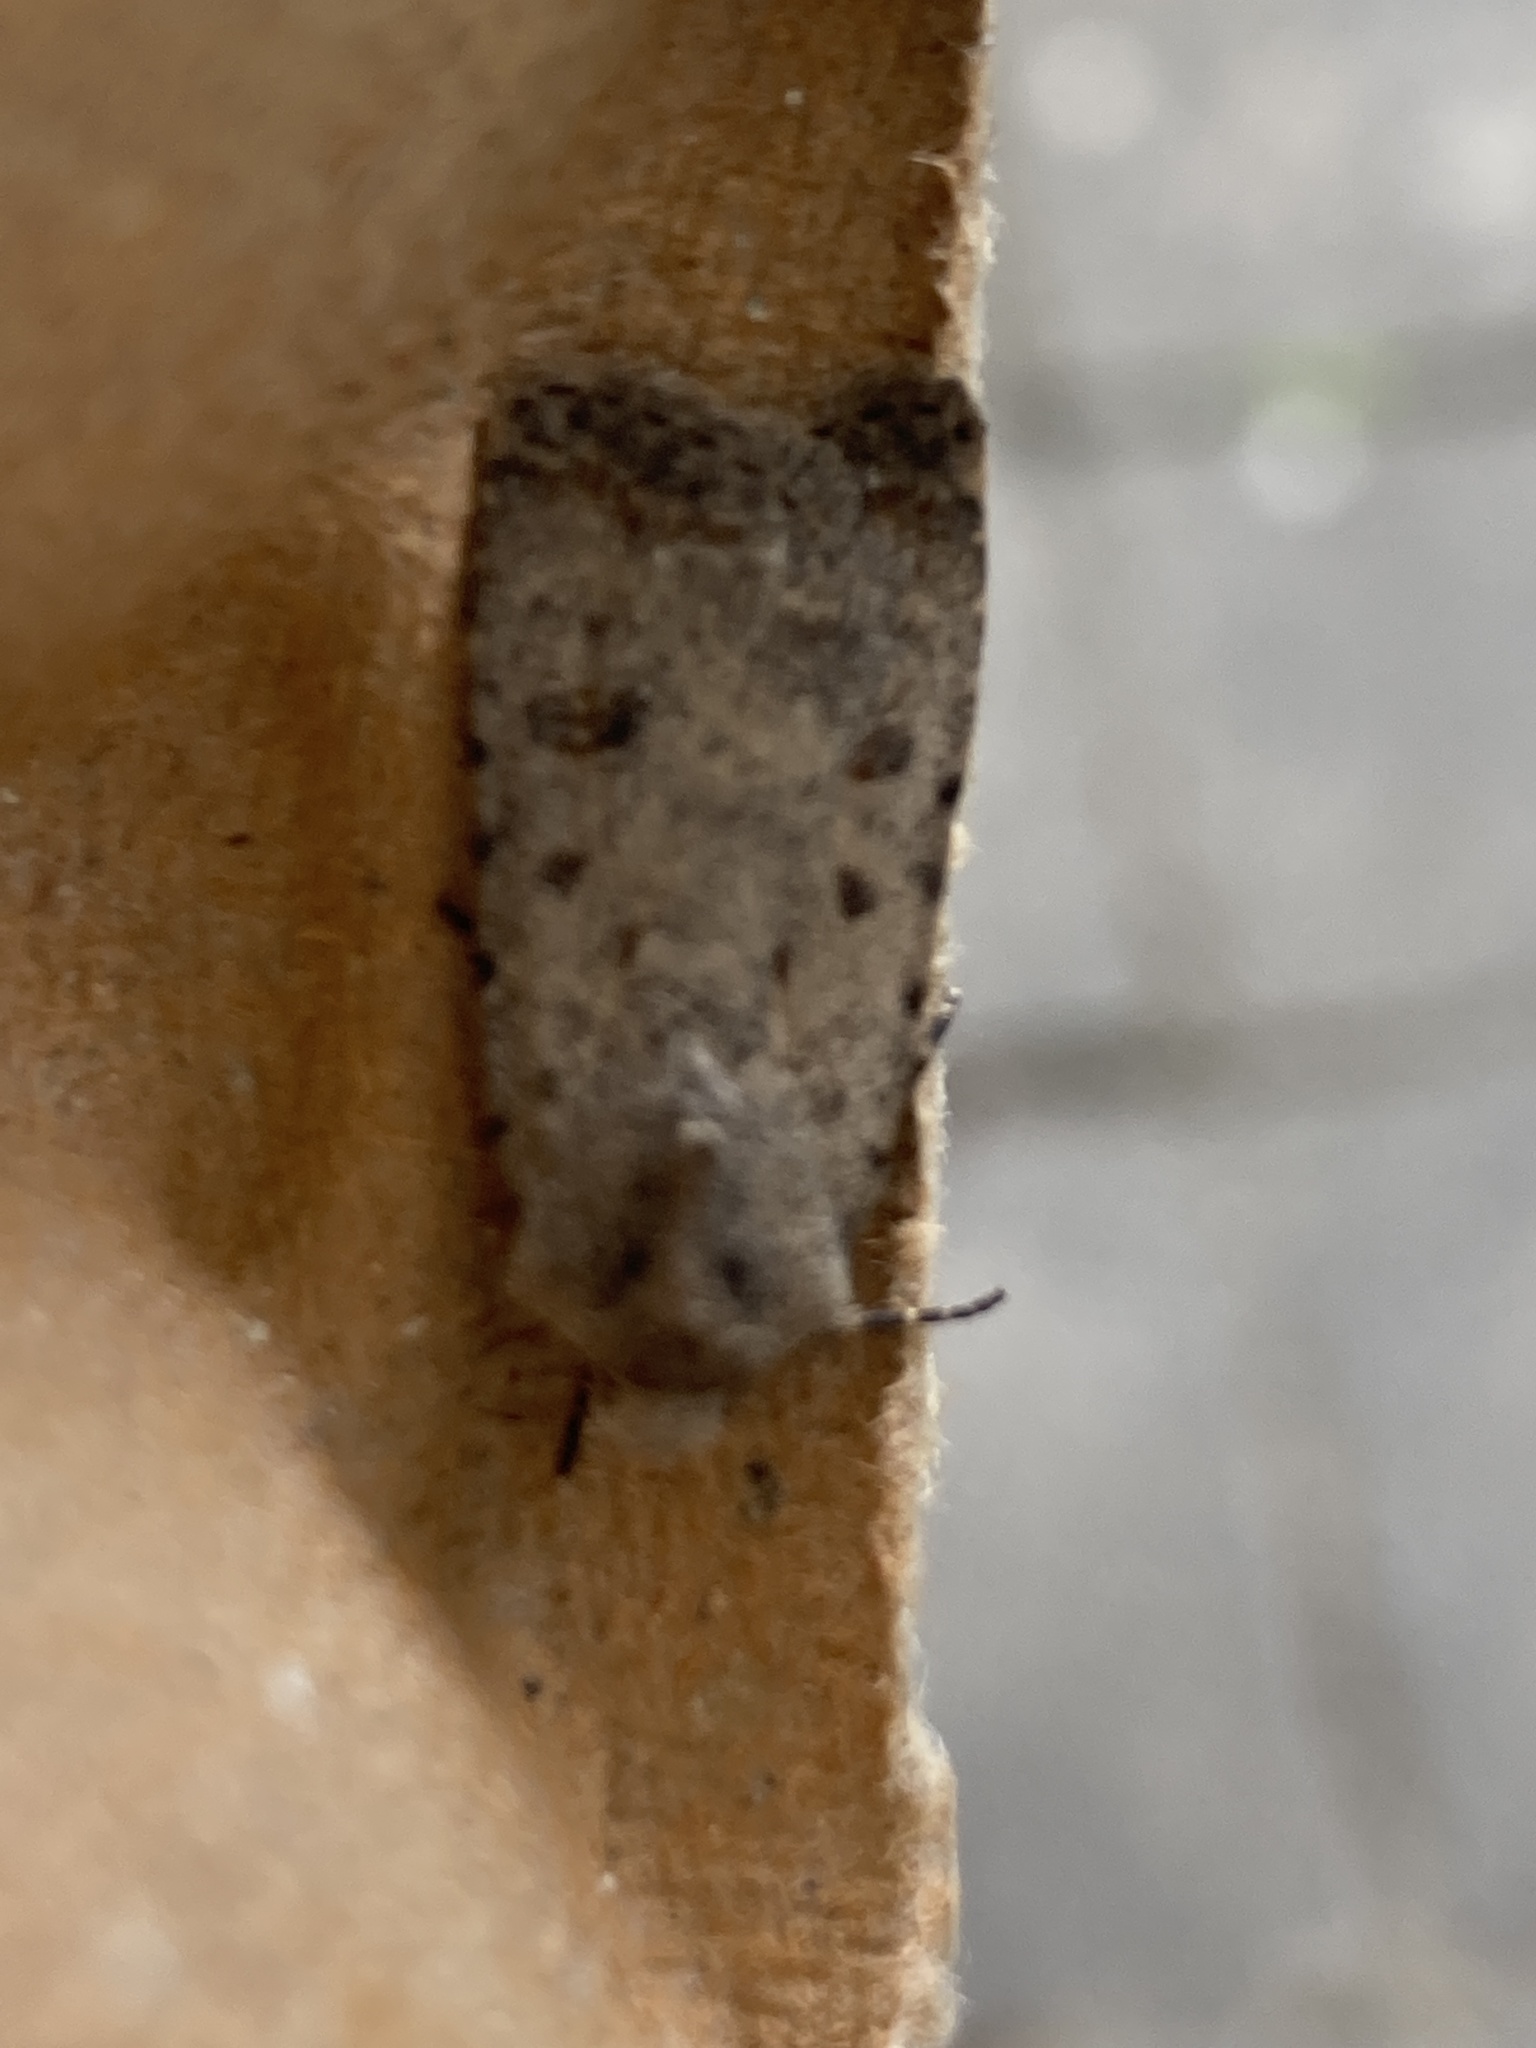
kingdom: Animalia
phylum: Arthropoda
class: Insecta
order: Lepidoptera
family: Noctuidae
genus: Caradrina
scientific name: Caradrina clavipalpis
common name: Pale mottled willow
